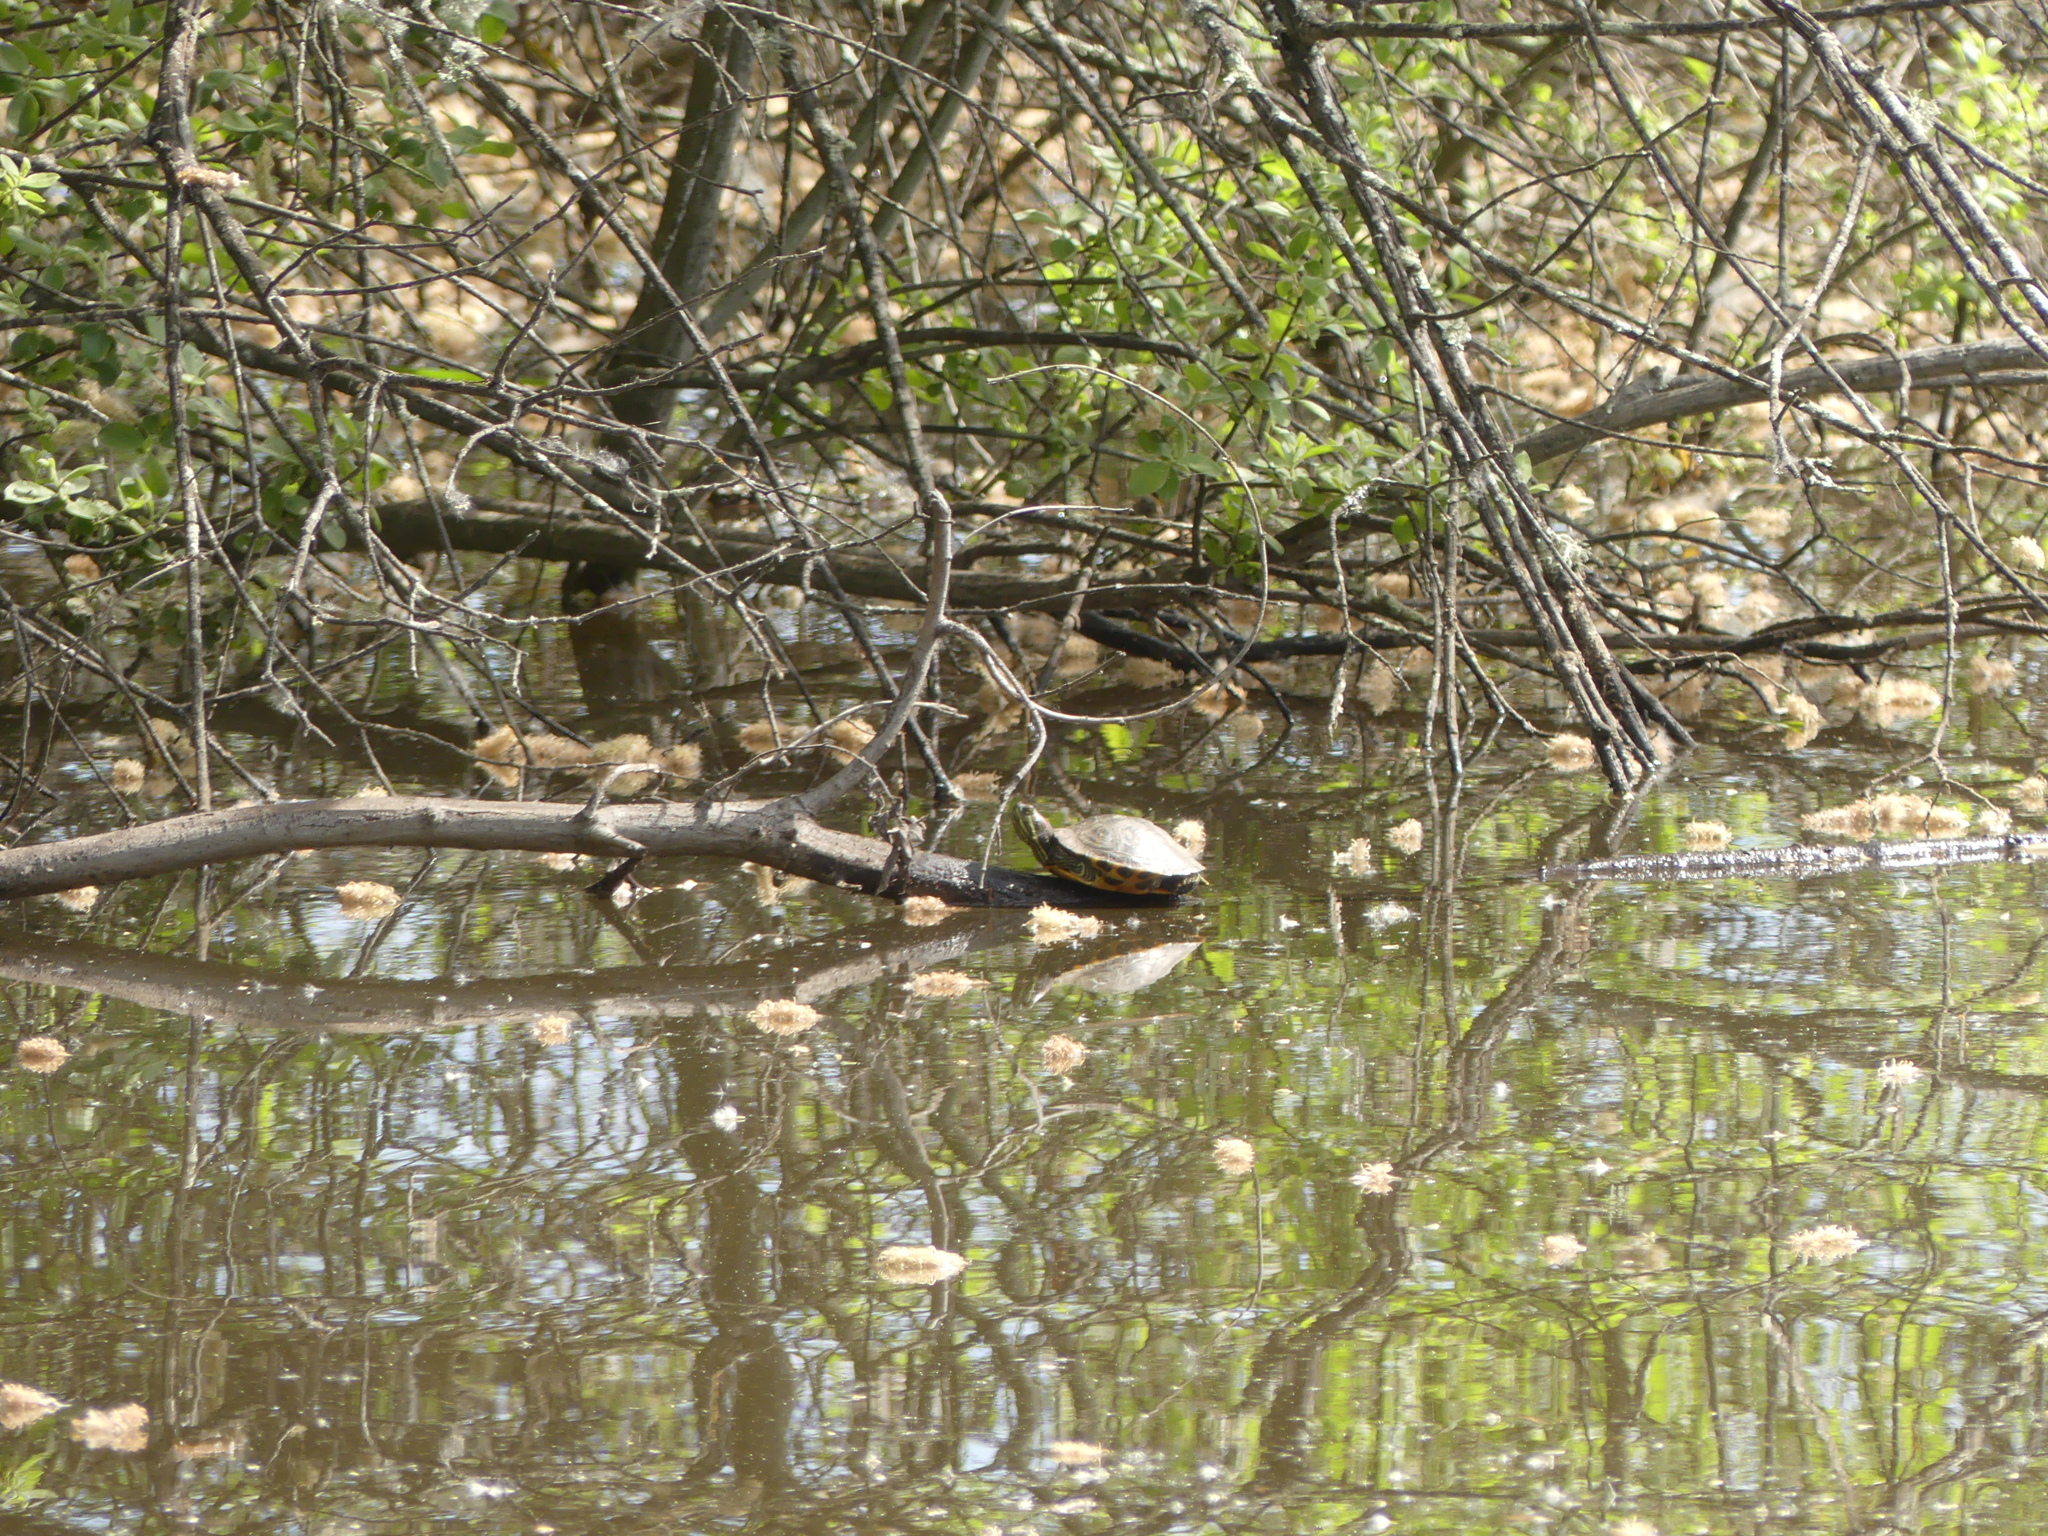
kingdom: Animalia
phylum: Chordata
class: Testudines
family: Emydidae
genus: Trachemys
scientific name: Trachemys scripta
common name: Slider
